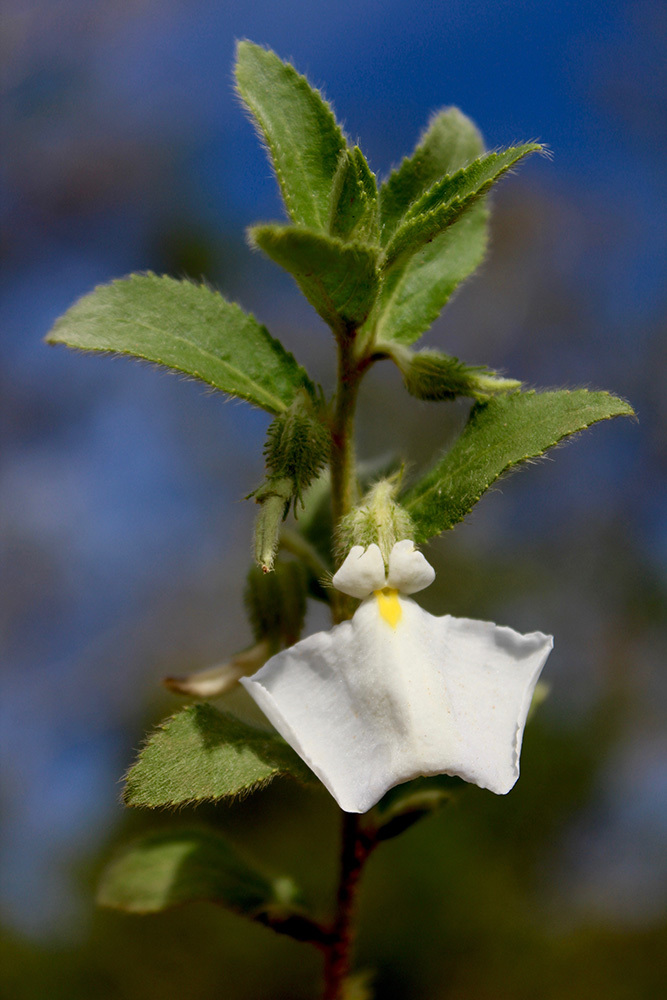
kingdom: Plantae
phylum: Tracheophyta
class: Magnoliopsida
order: Malpighiales
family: Violaceae
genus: Pombalia
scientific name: Pombalia calceolaria
